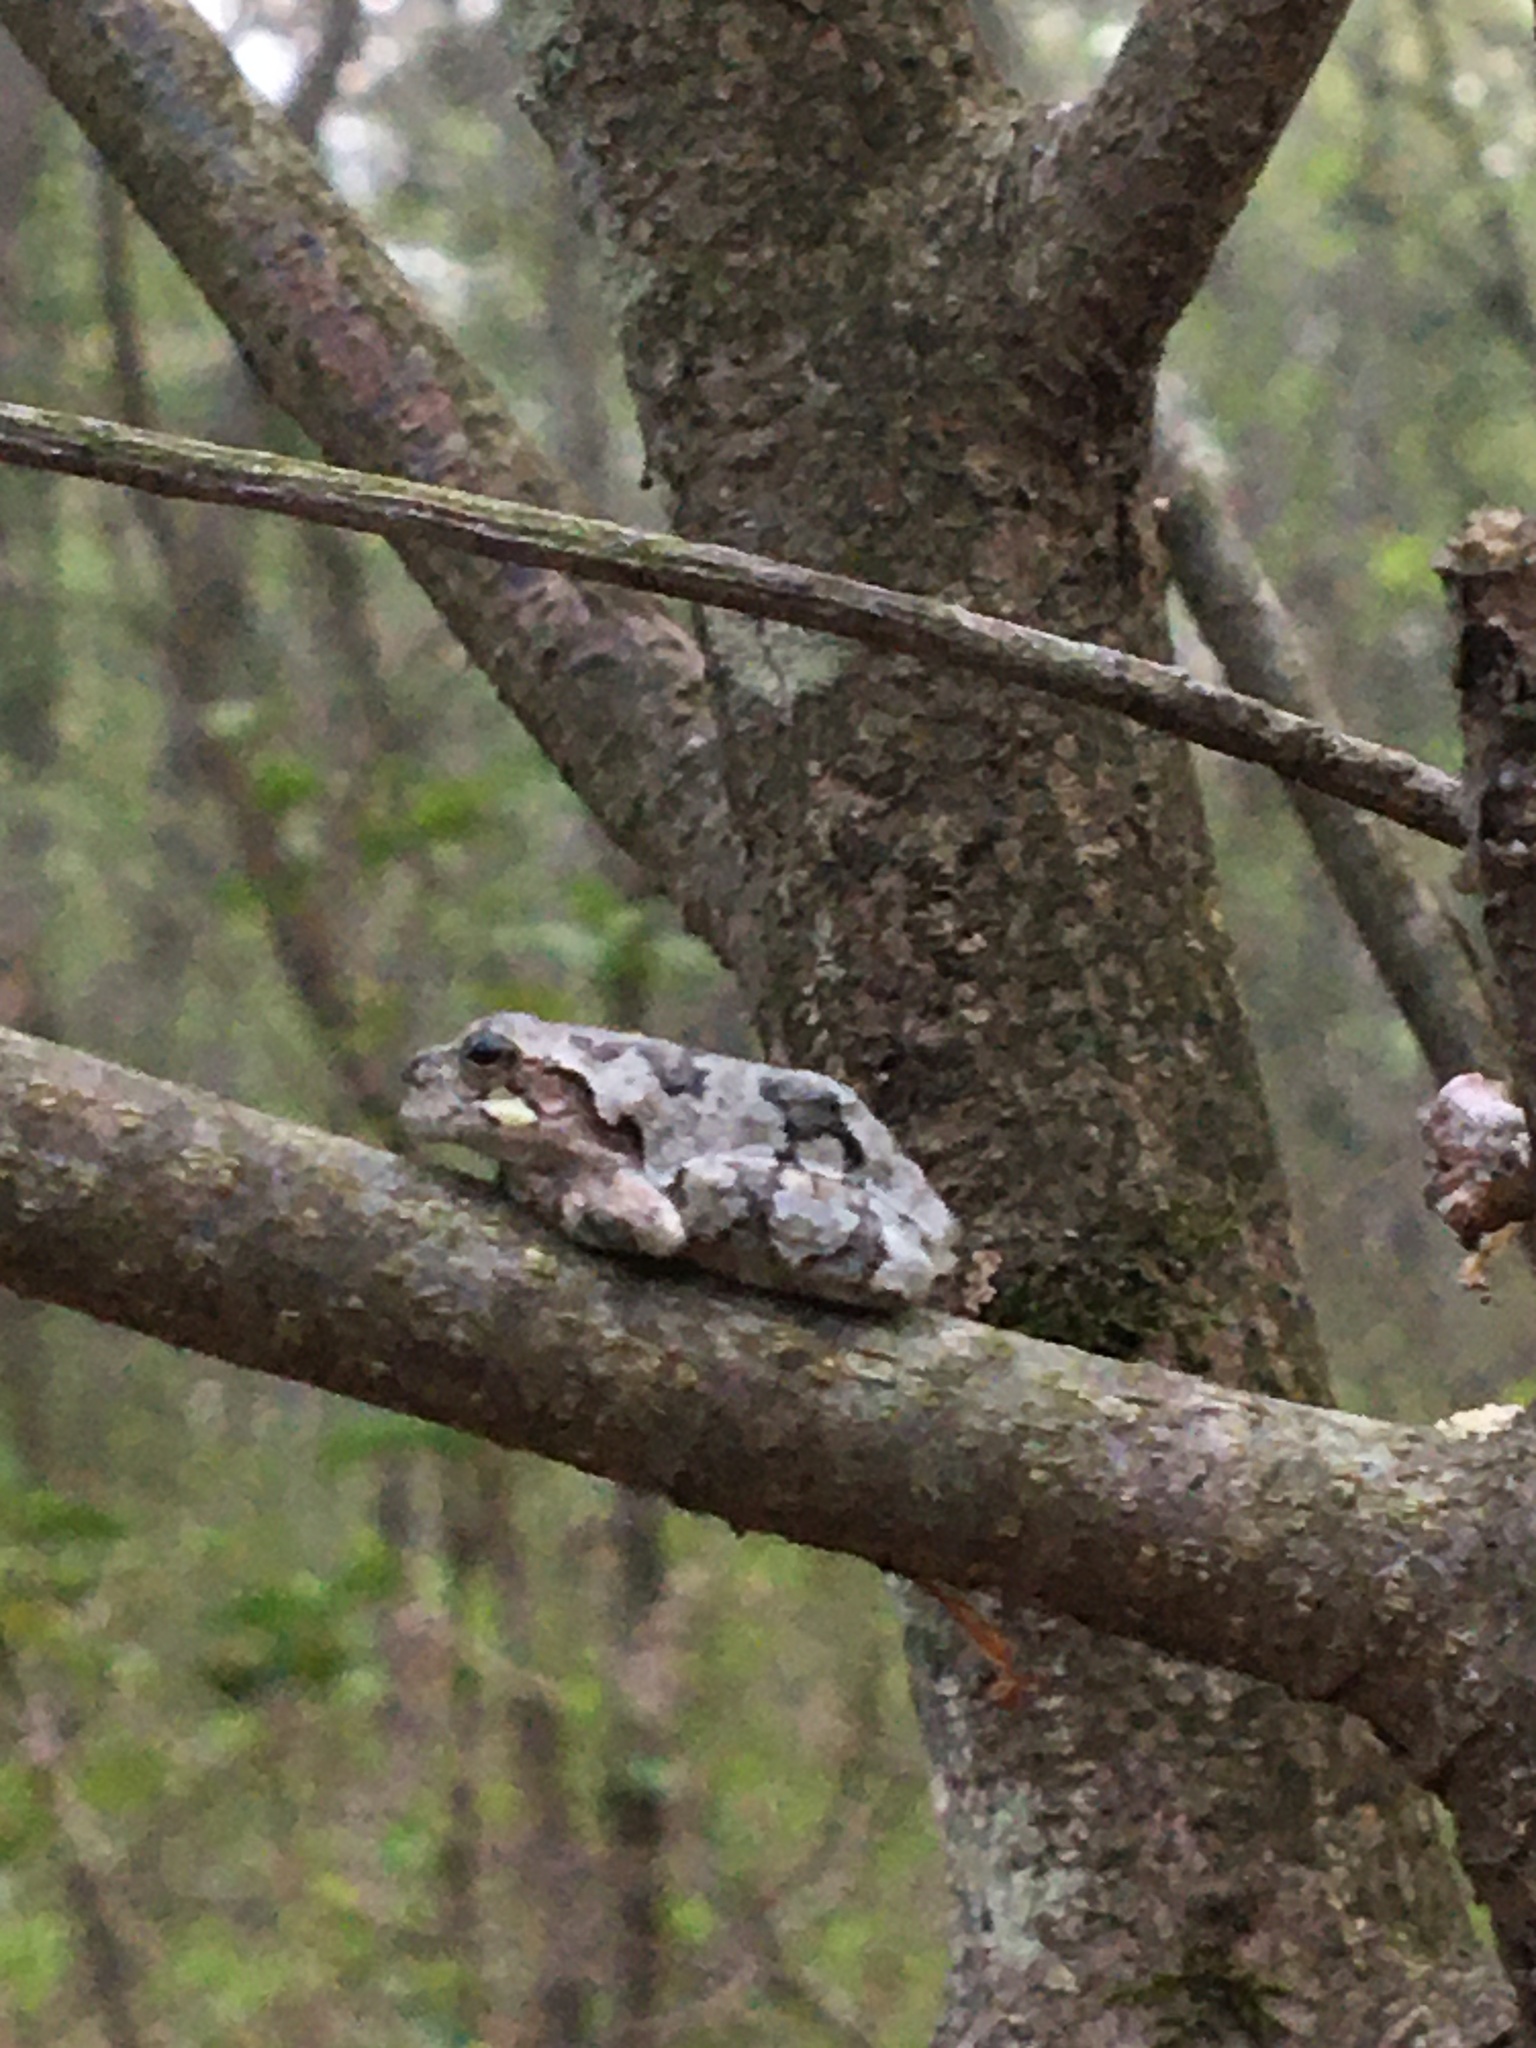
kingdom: Animalia
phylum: Chordata
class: Amphibia
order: Anura
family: Hylidae
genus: Dryophytes
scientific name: Dryophytes versicolor
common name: Gray treefrog
